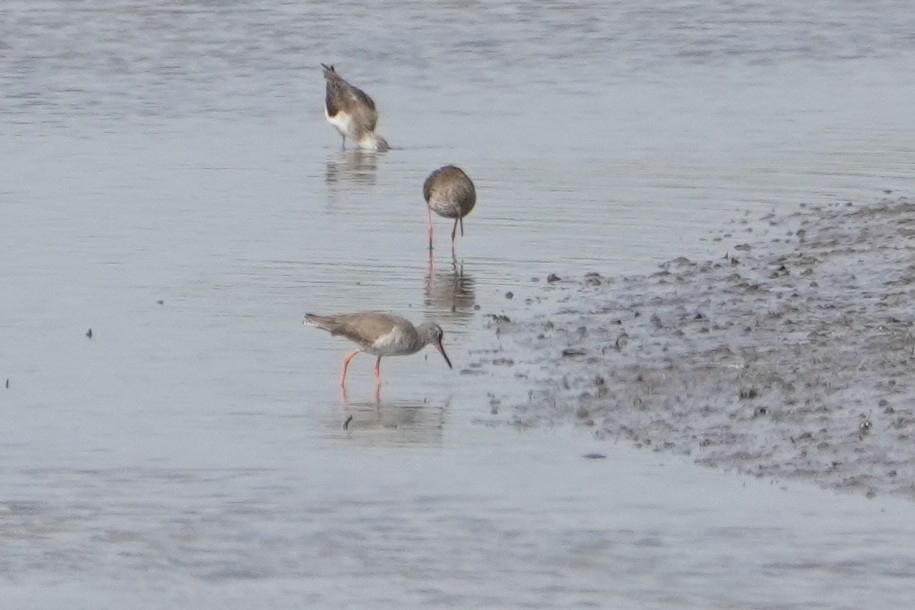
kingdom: Animalia
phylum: Chordata
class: Aves
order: Charadriiformes
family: Scolopacidae
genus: Tringa
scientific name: Tringa totanus
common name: Common redshank
